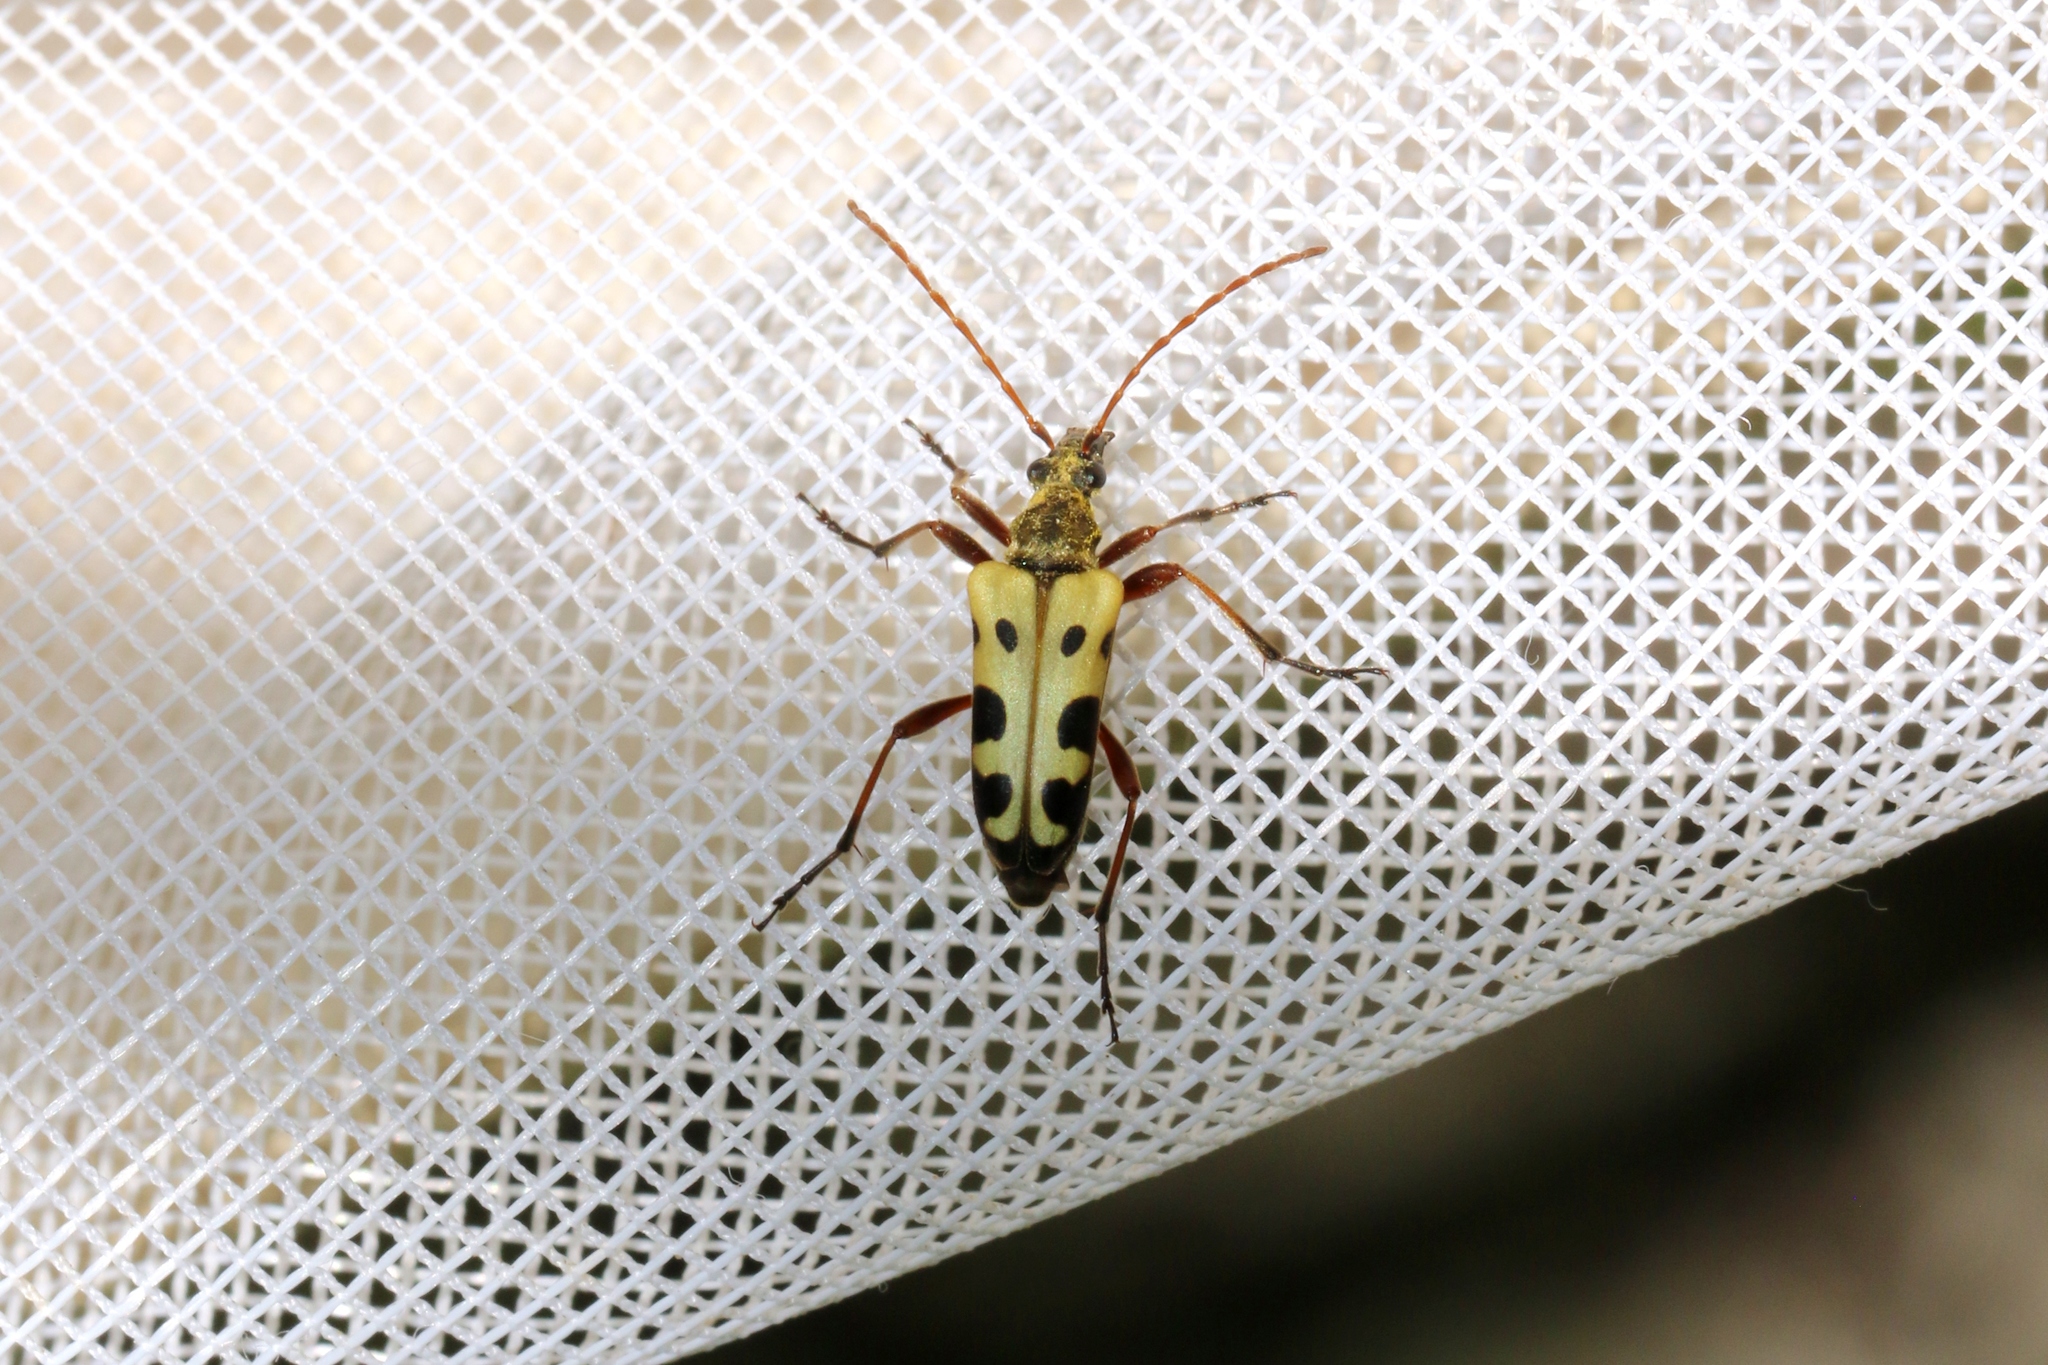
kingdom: Animalia
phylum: Arthropoda
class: Insecta
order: Coleoptera
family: Cerambycidae
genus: Evodinus
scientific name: Evodinus monticola
